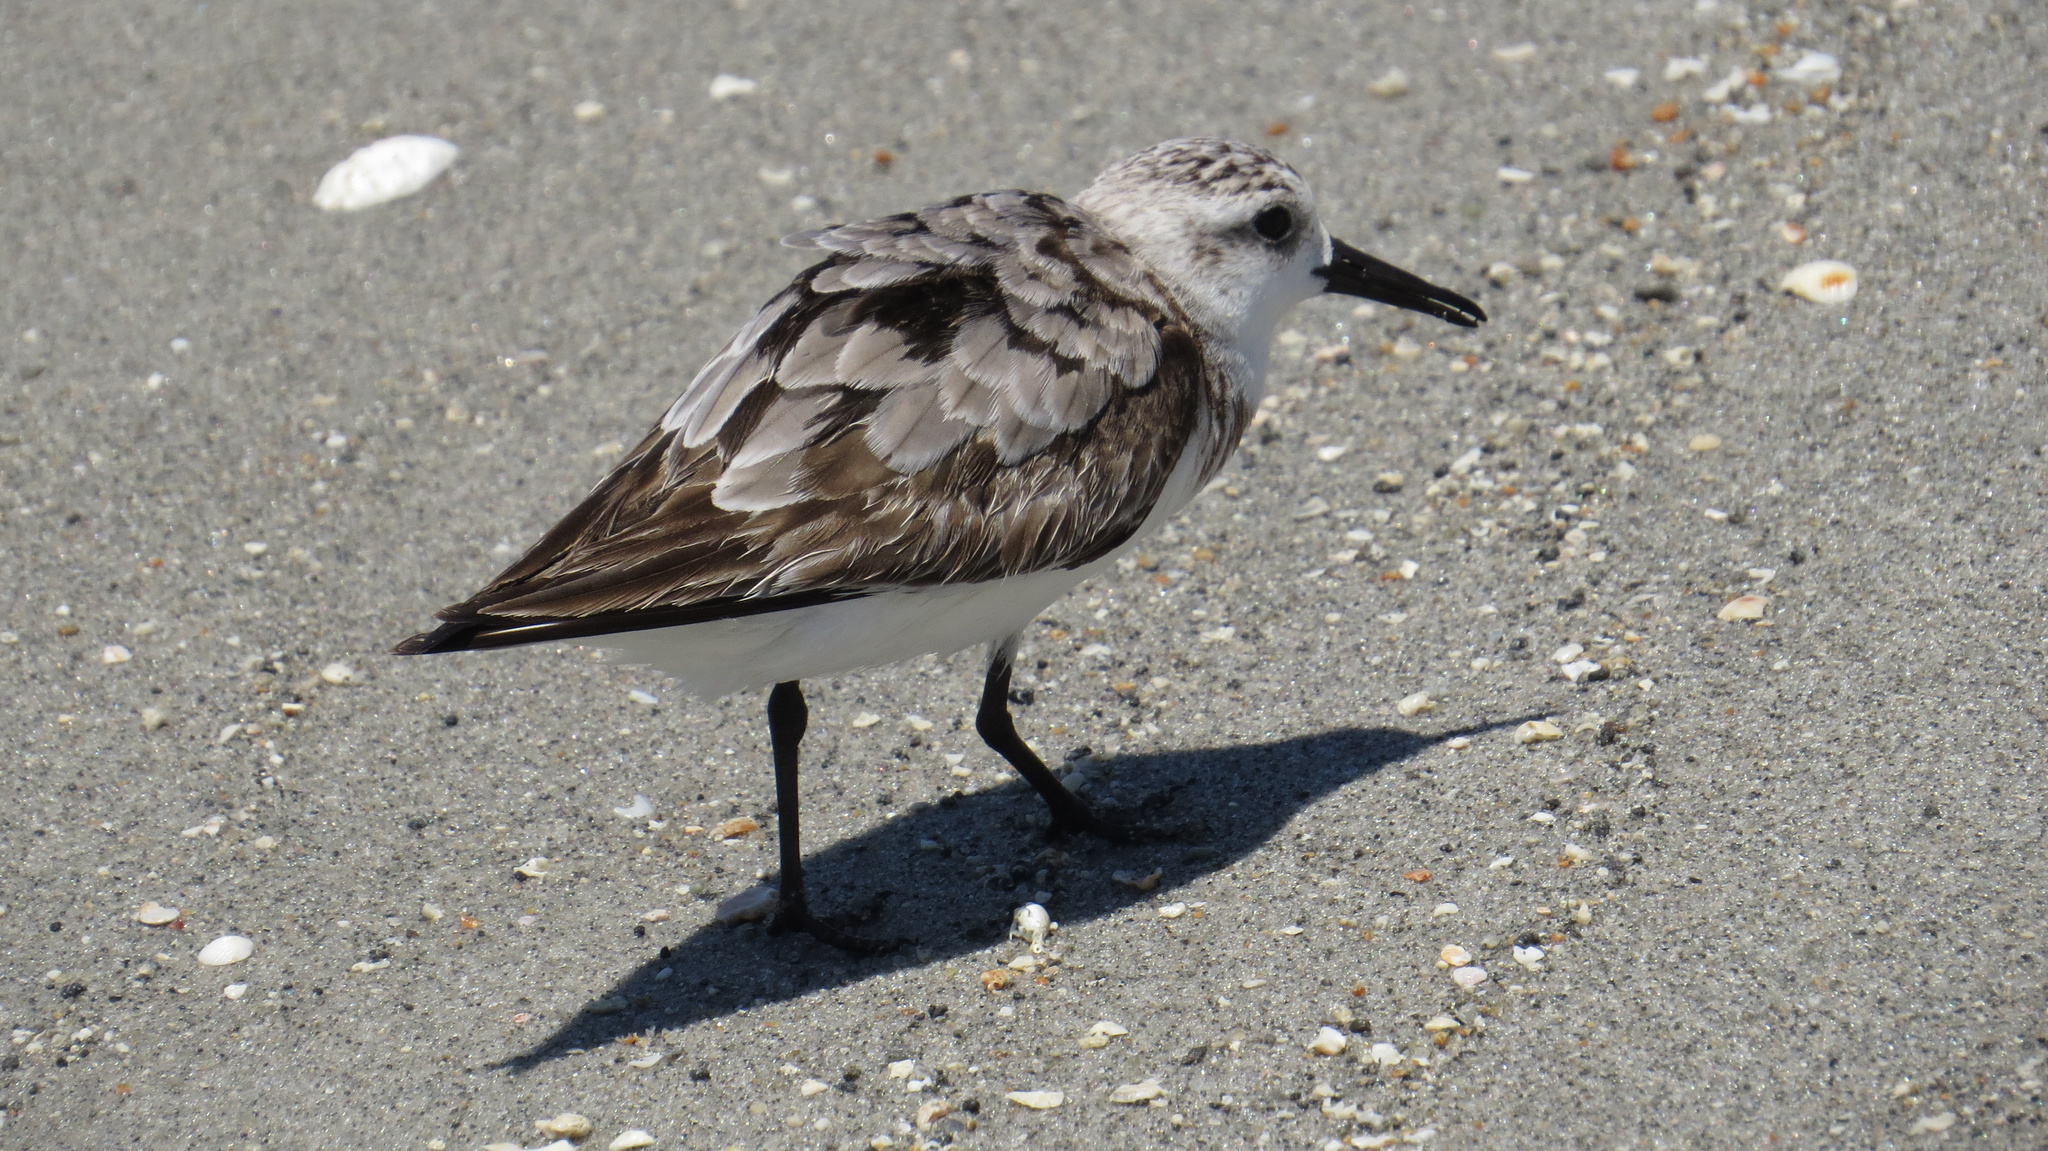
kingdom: Animalia
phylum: Chordata
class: Aves
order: Charadriiformes
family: Scolopacidae
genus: Calidris
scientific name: Calidris alba
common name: Sanderling
